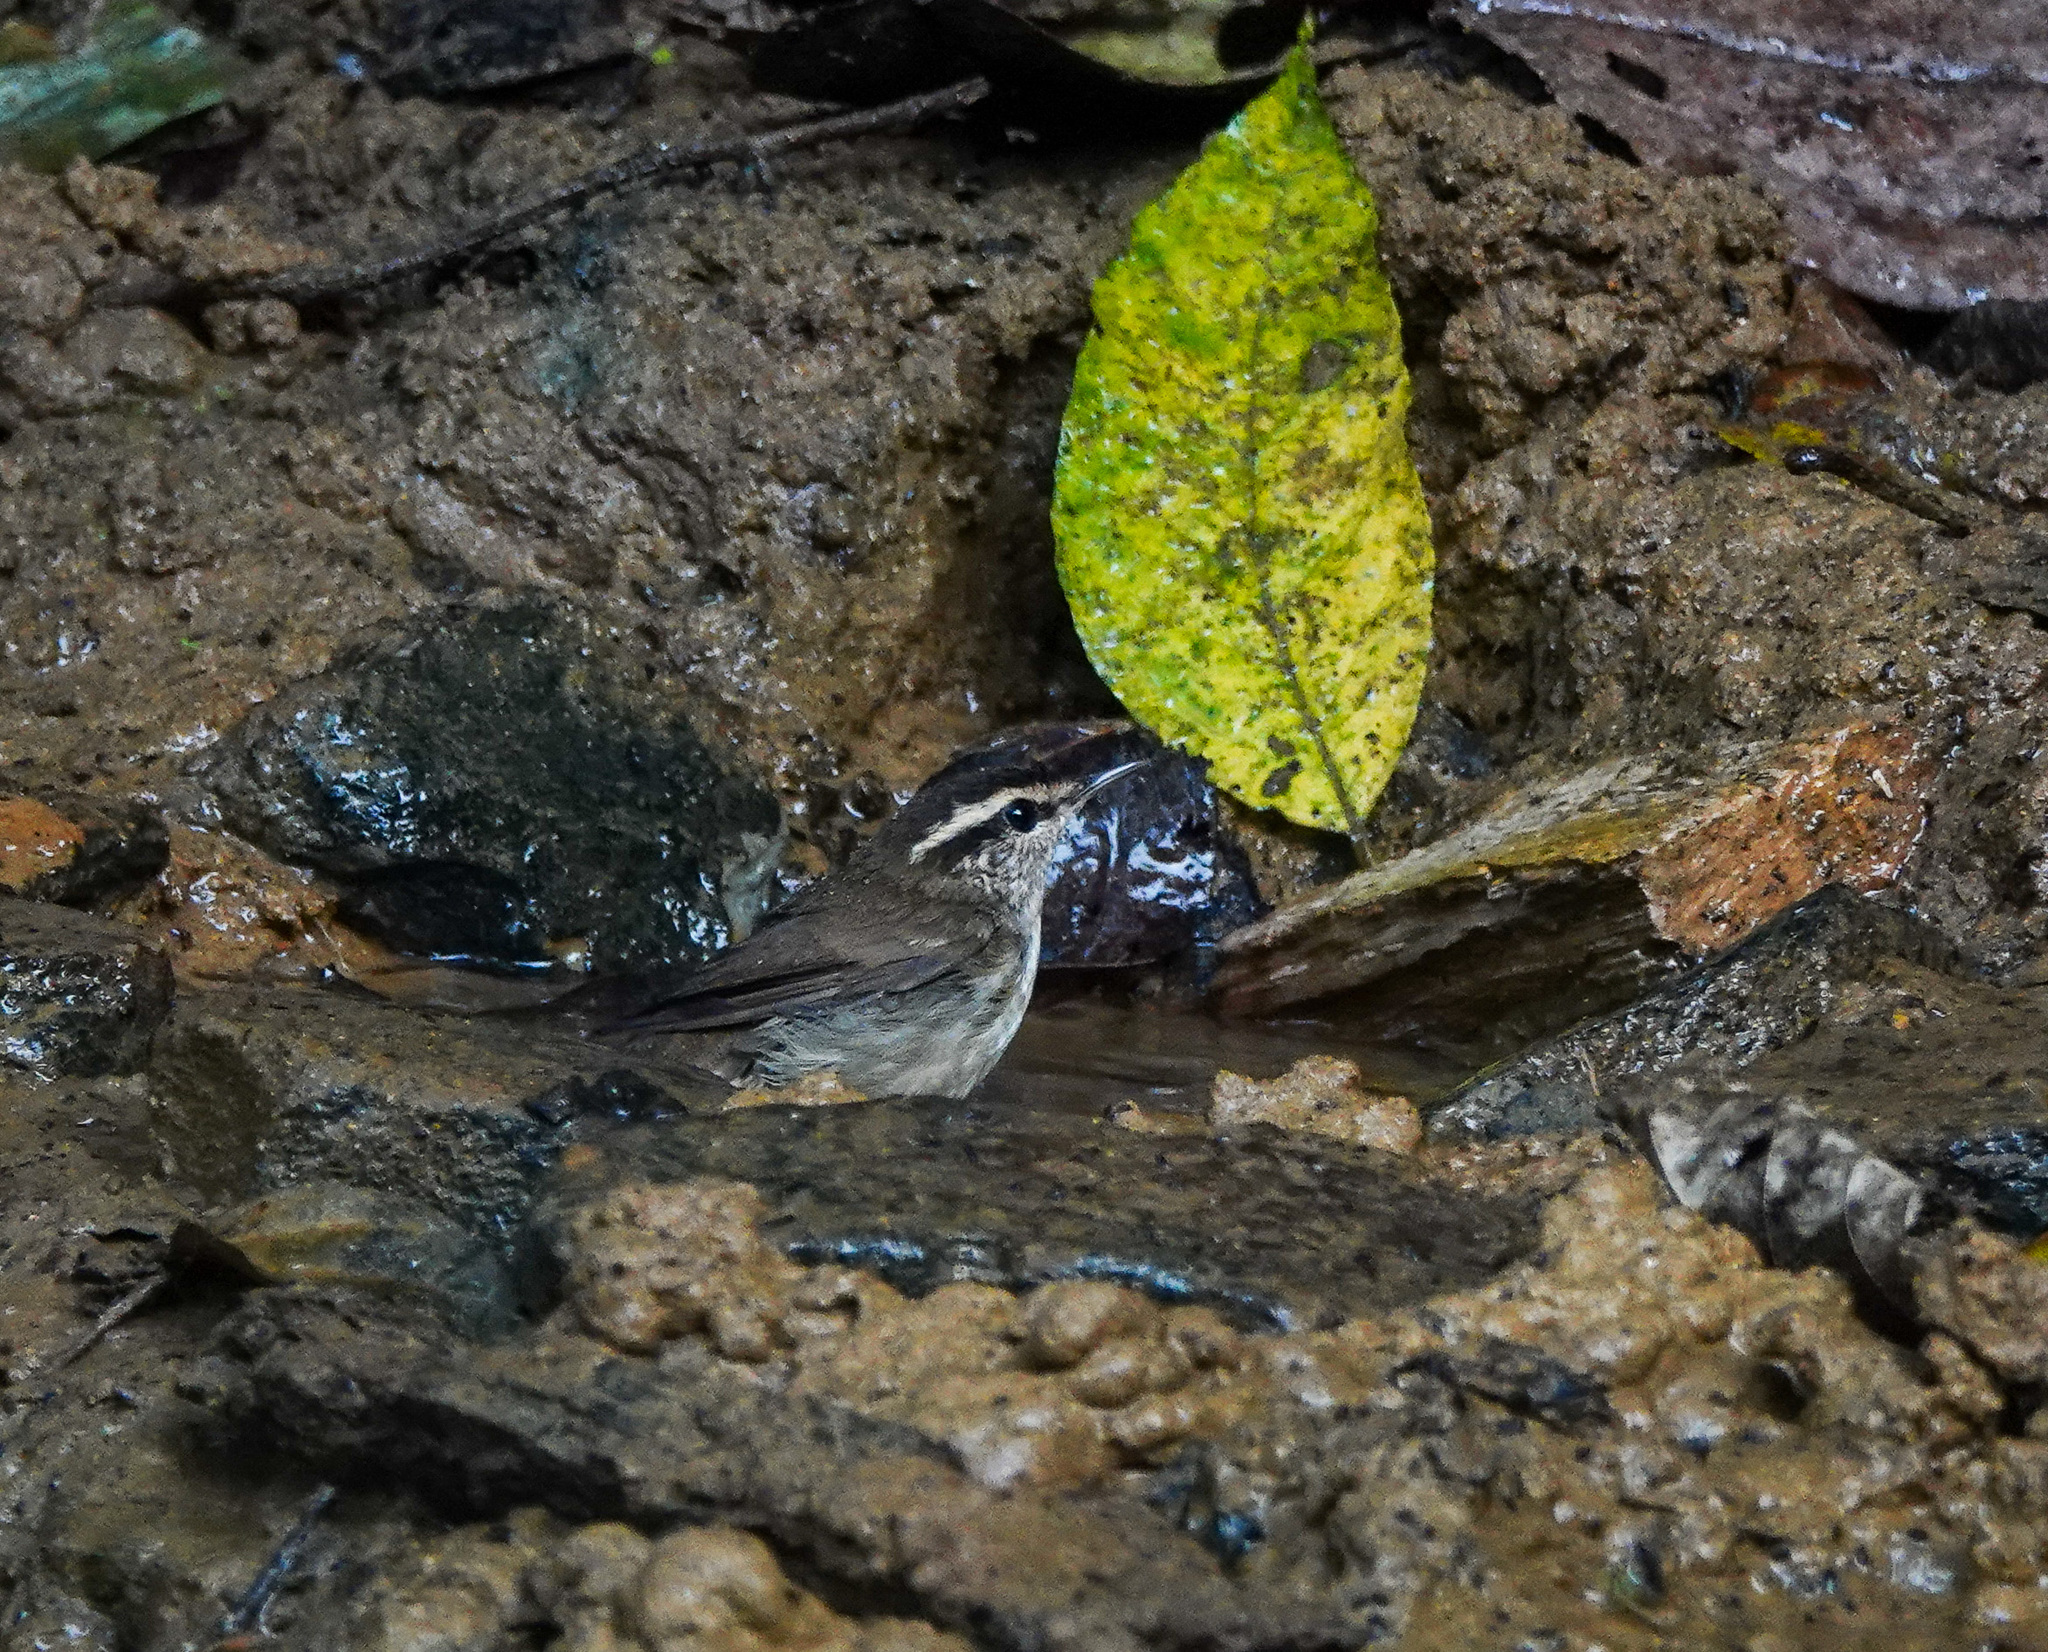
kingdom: Animalia
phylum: Chordata
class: Aves
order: Passeriformes
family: Cettiidae
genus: Urosphena
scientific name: Urosphena squameiceps
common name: Asian stubtail
